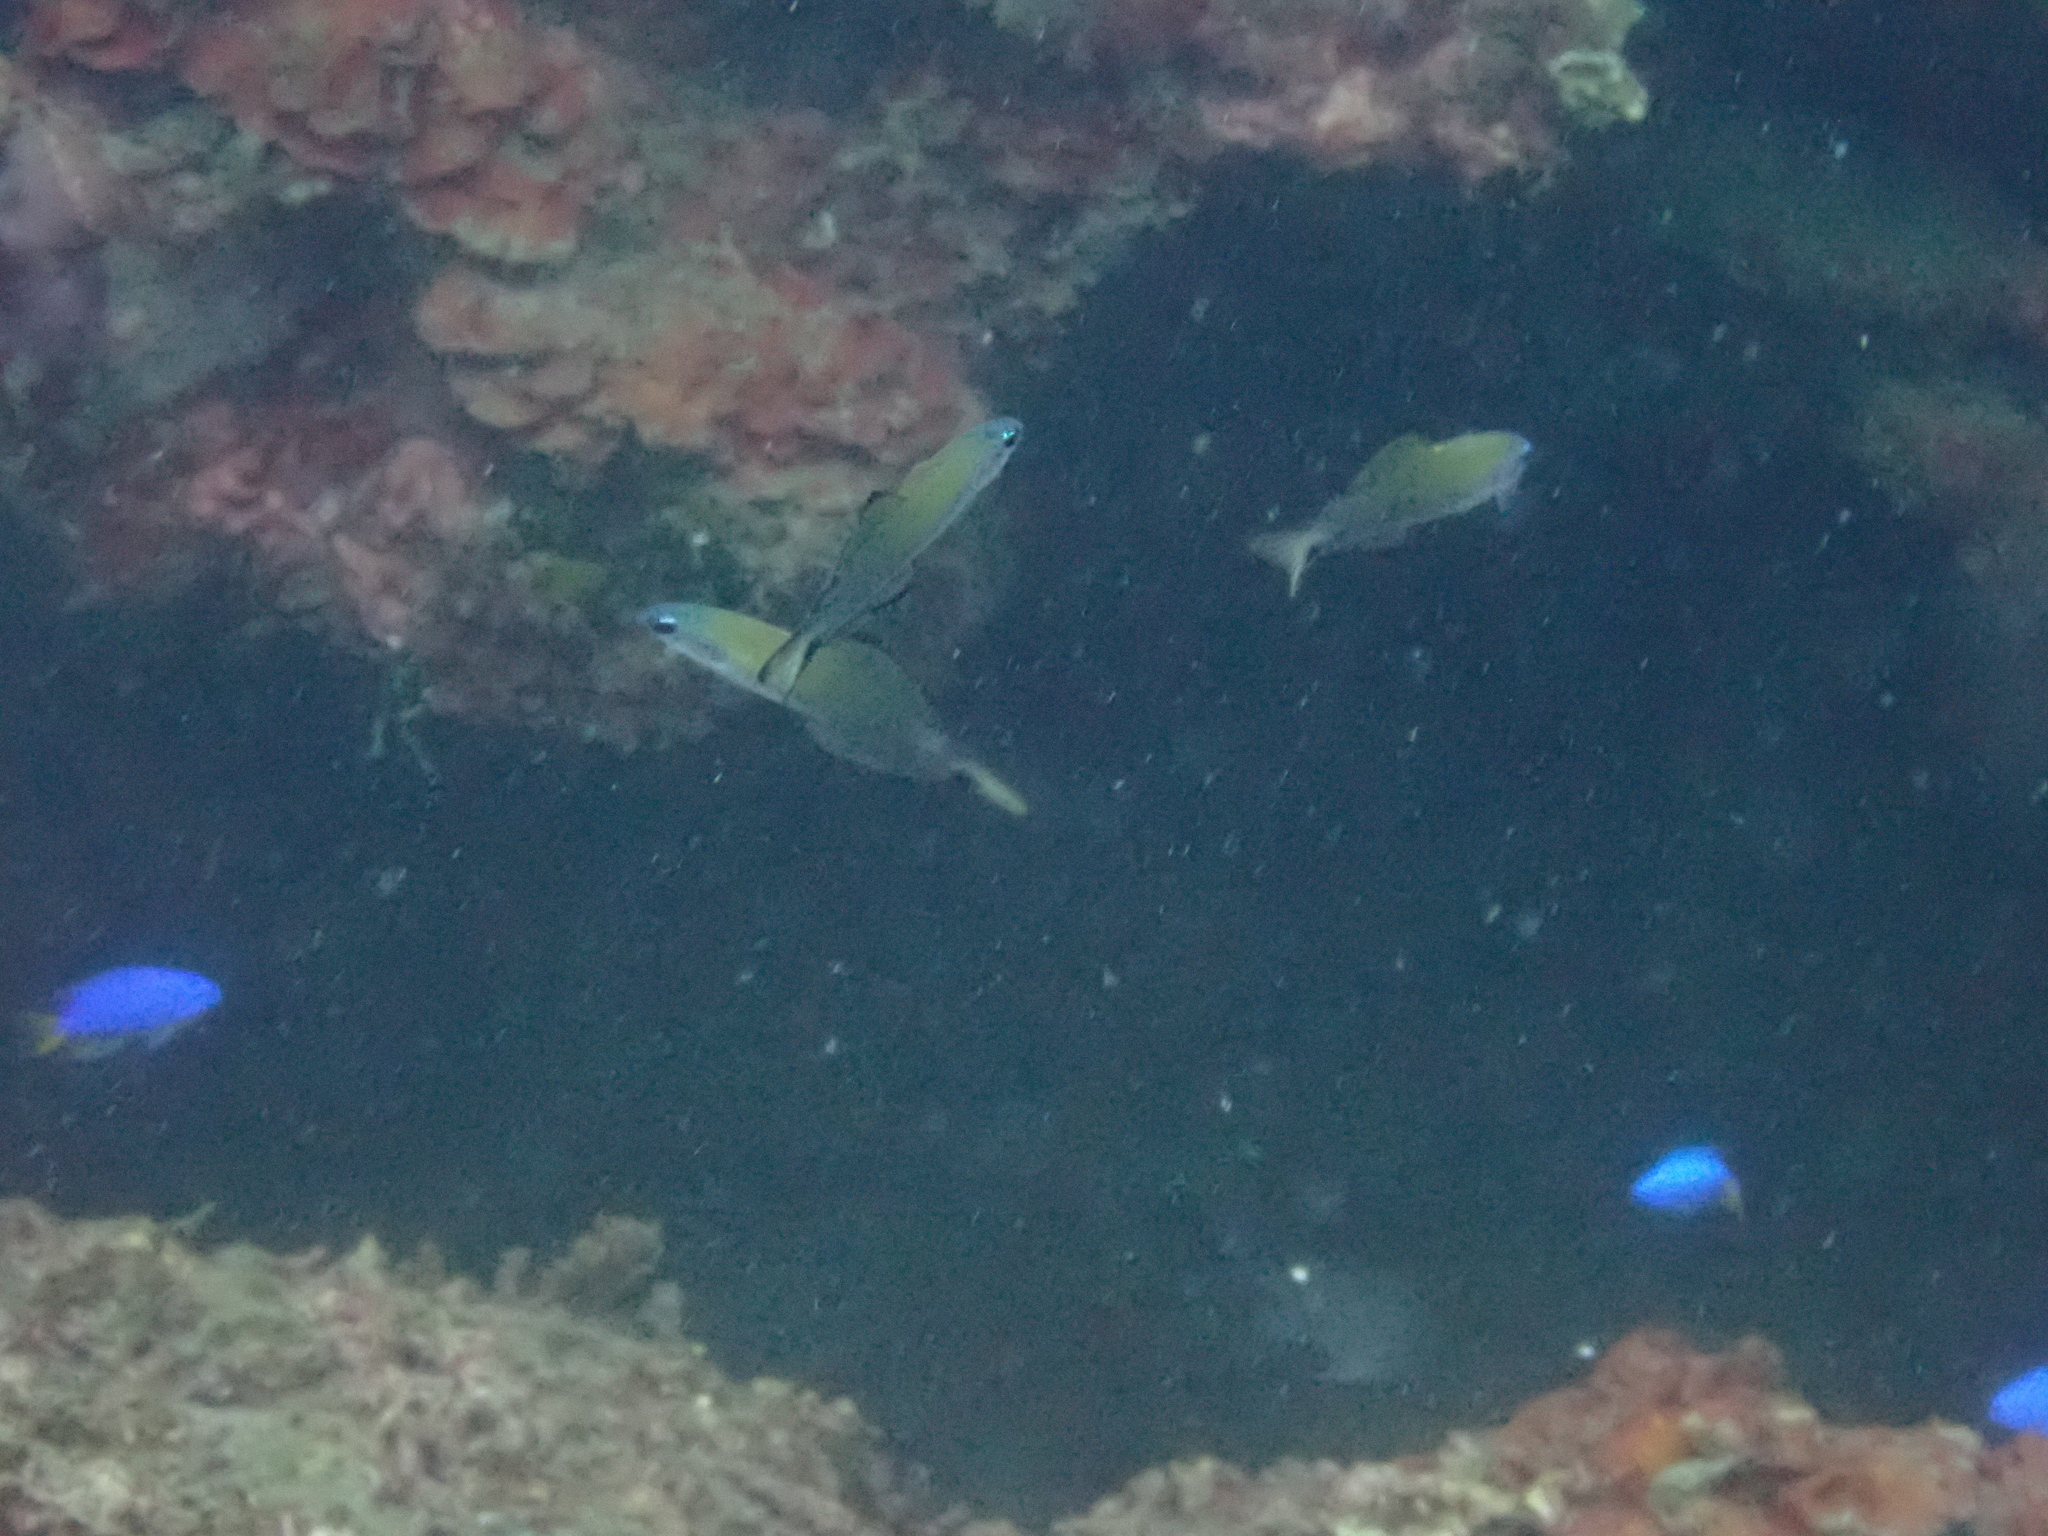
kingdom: Animalia
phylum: Chordata
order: Perciformes
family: Chaetodontidae
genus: Chaetodon
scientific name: Chaetodon speculum
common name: Mirror butterflyfish
